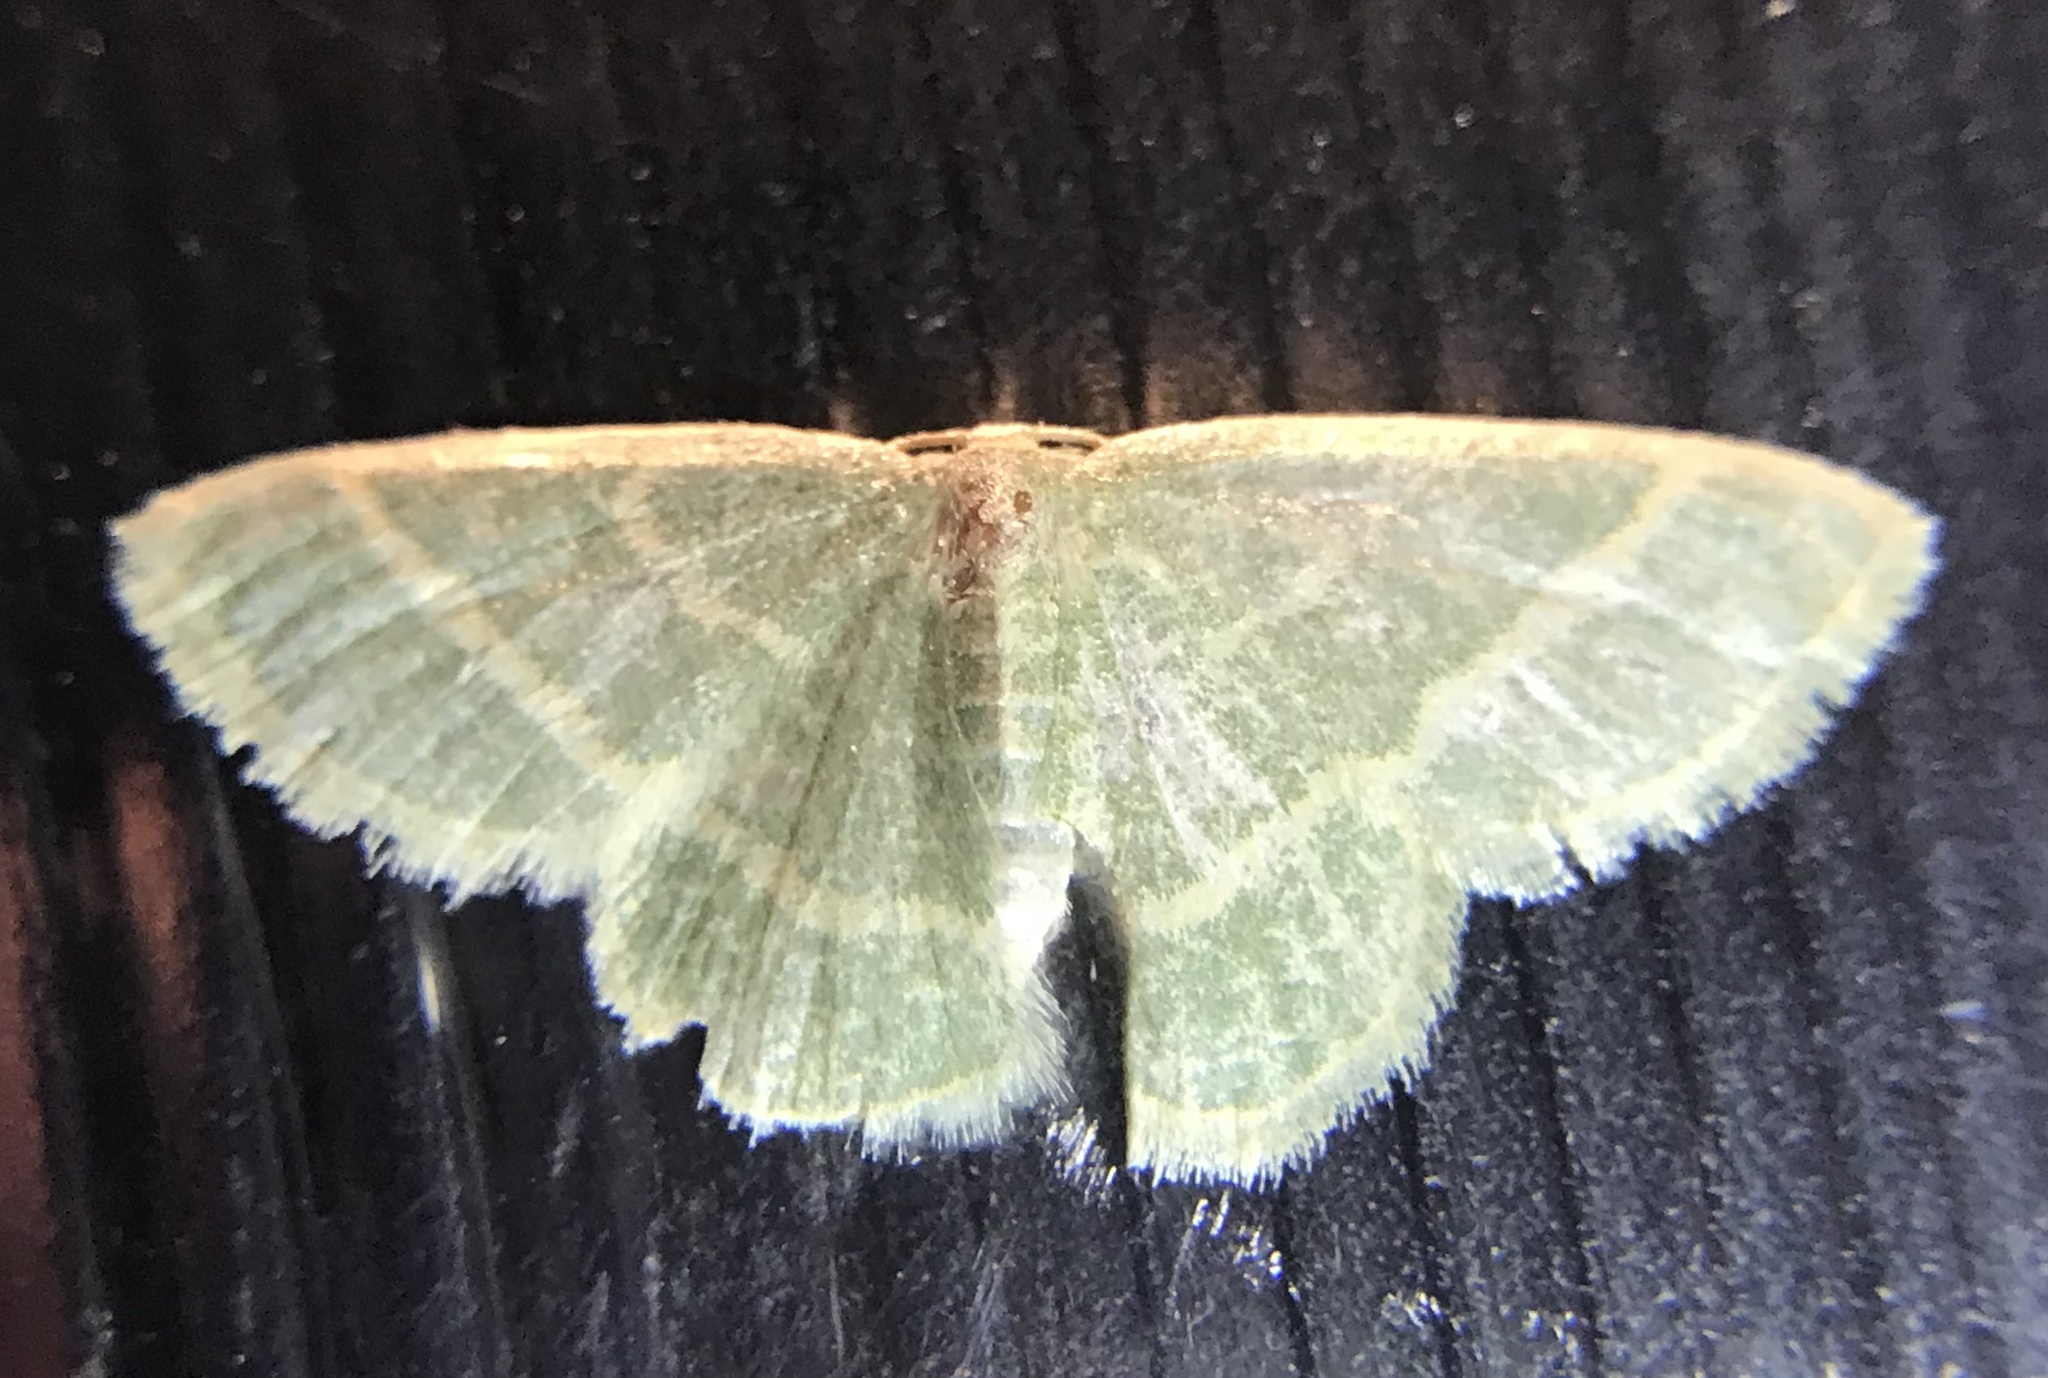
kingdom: Animalia
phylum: Arthropoda
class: Insecta
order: Lepidoptera
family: Geometridae
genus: Chlorochlamys
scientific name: Chlorochlamys chloroleucaria
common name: Blackberry looper
